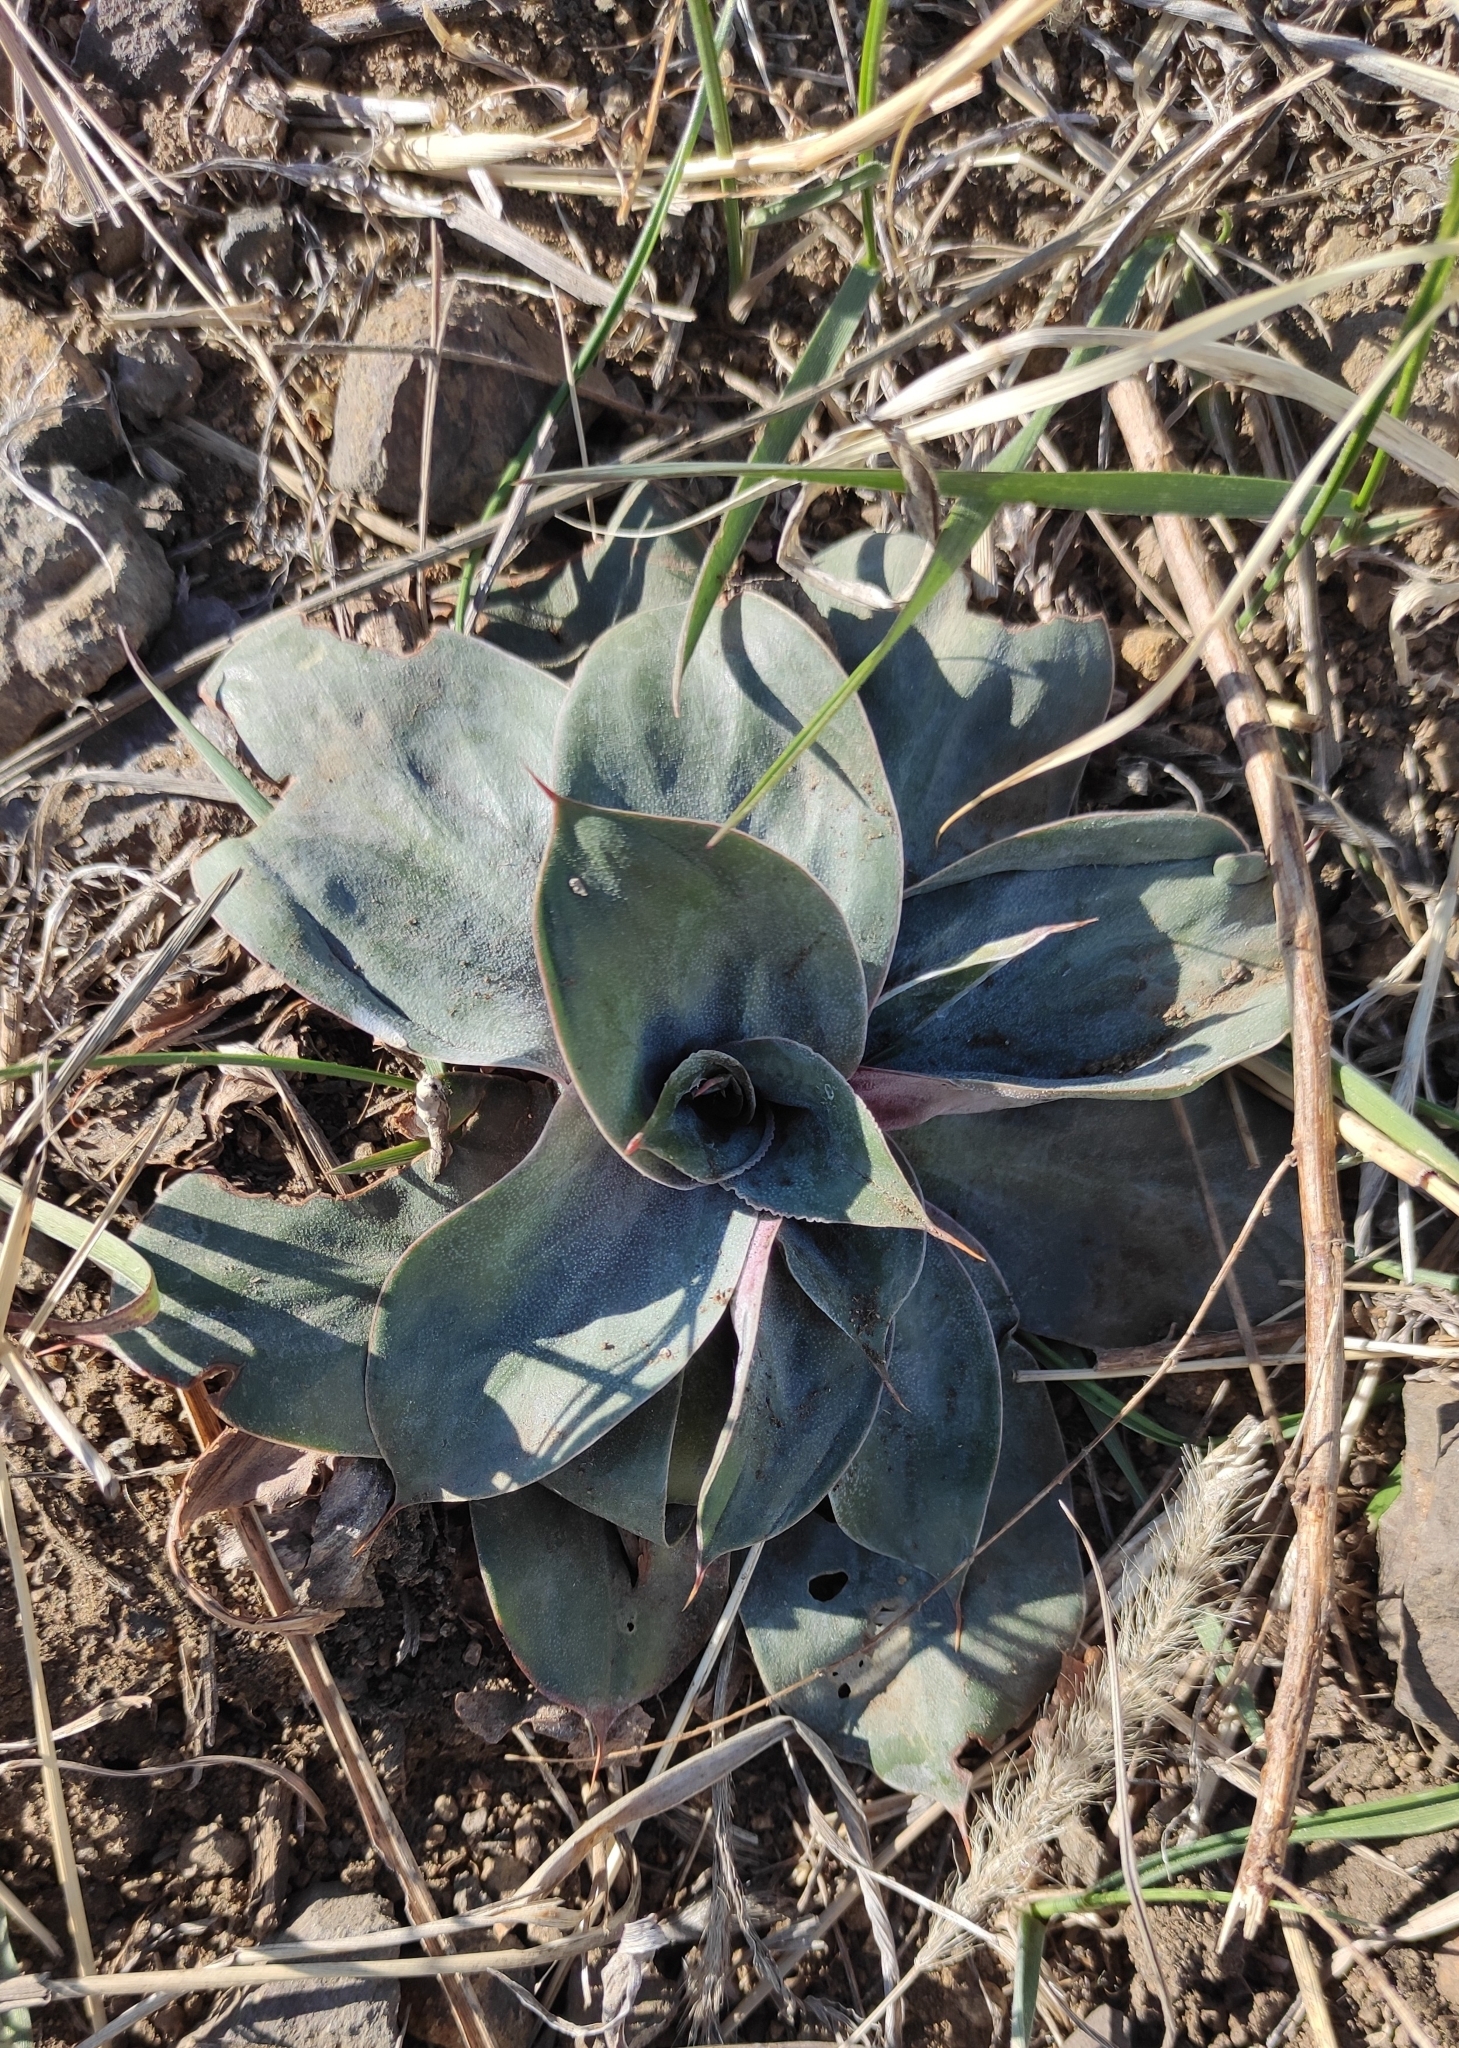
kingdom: Plantae
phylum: Tracheophyta
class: Magnoliopsida
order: Caryophyllales
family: Plumbaginaceae
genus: Goniolimon
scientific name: Goniolimon speciosum
